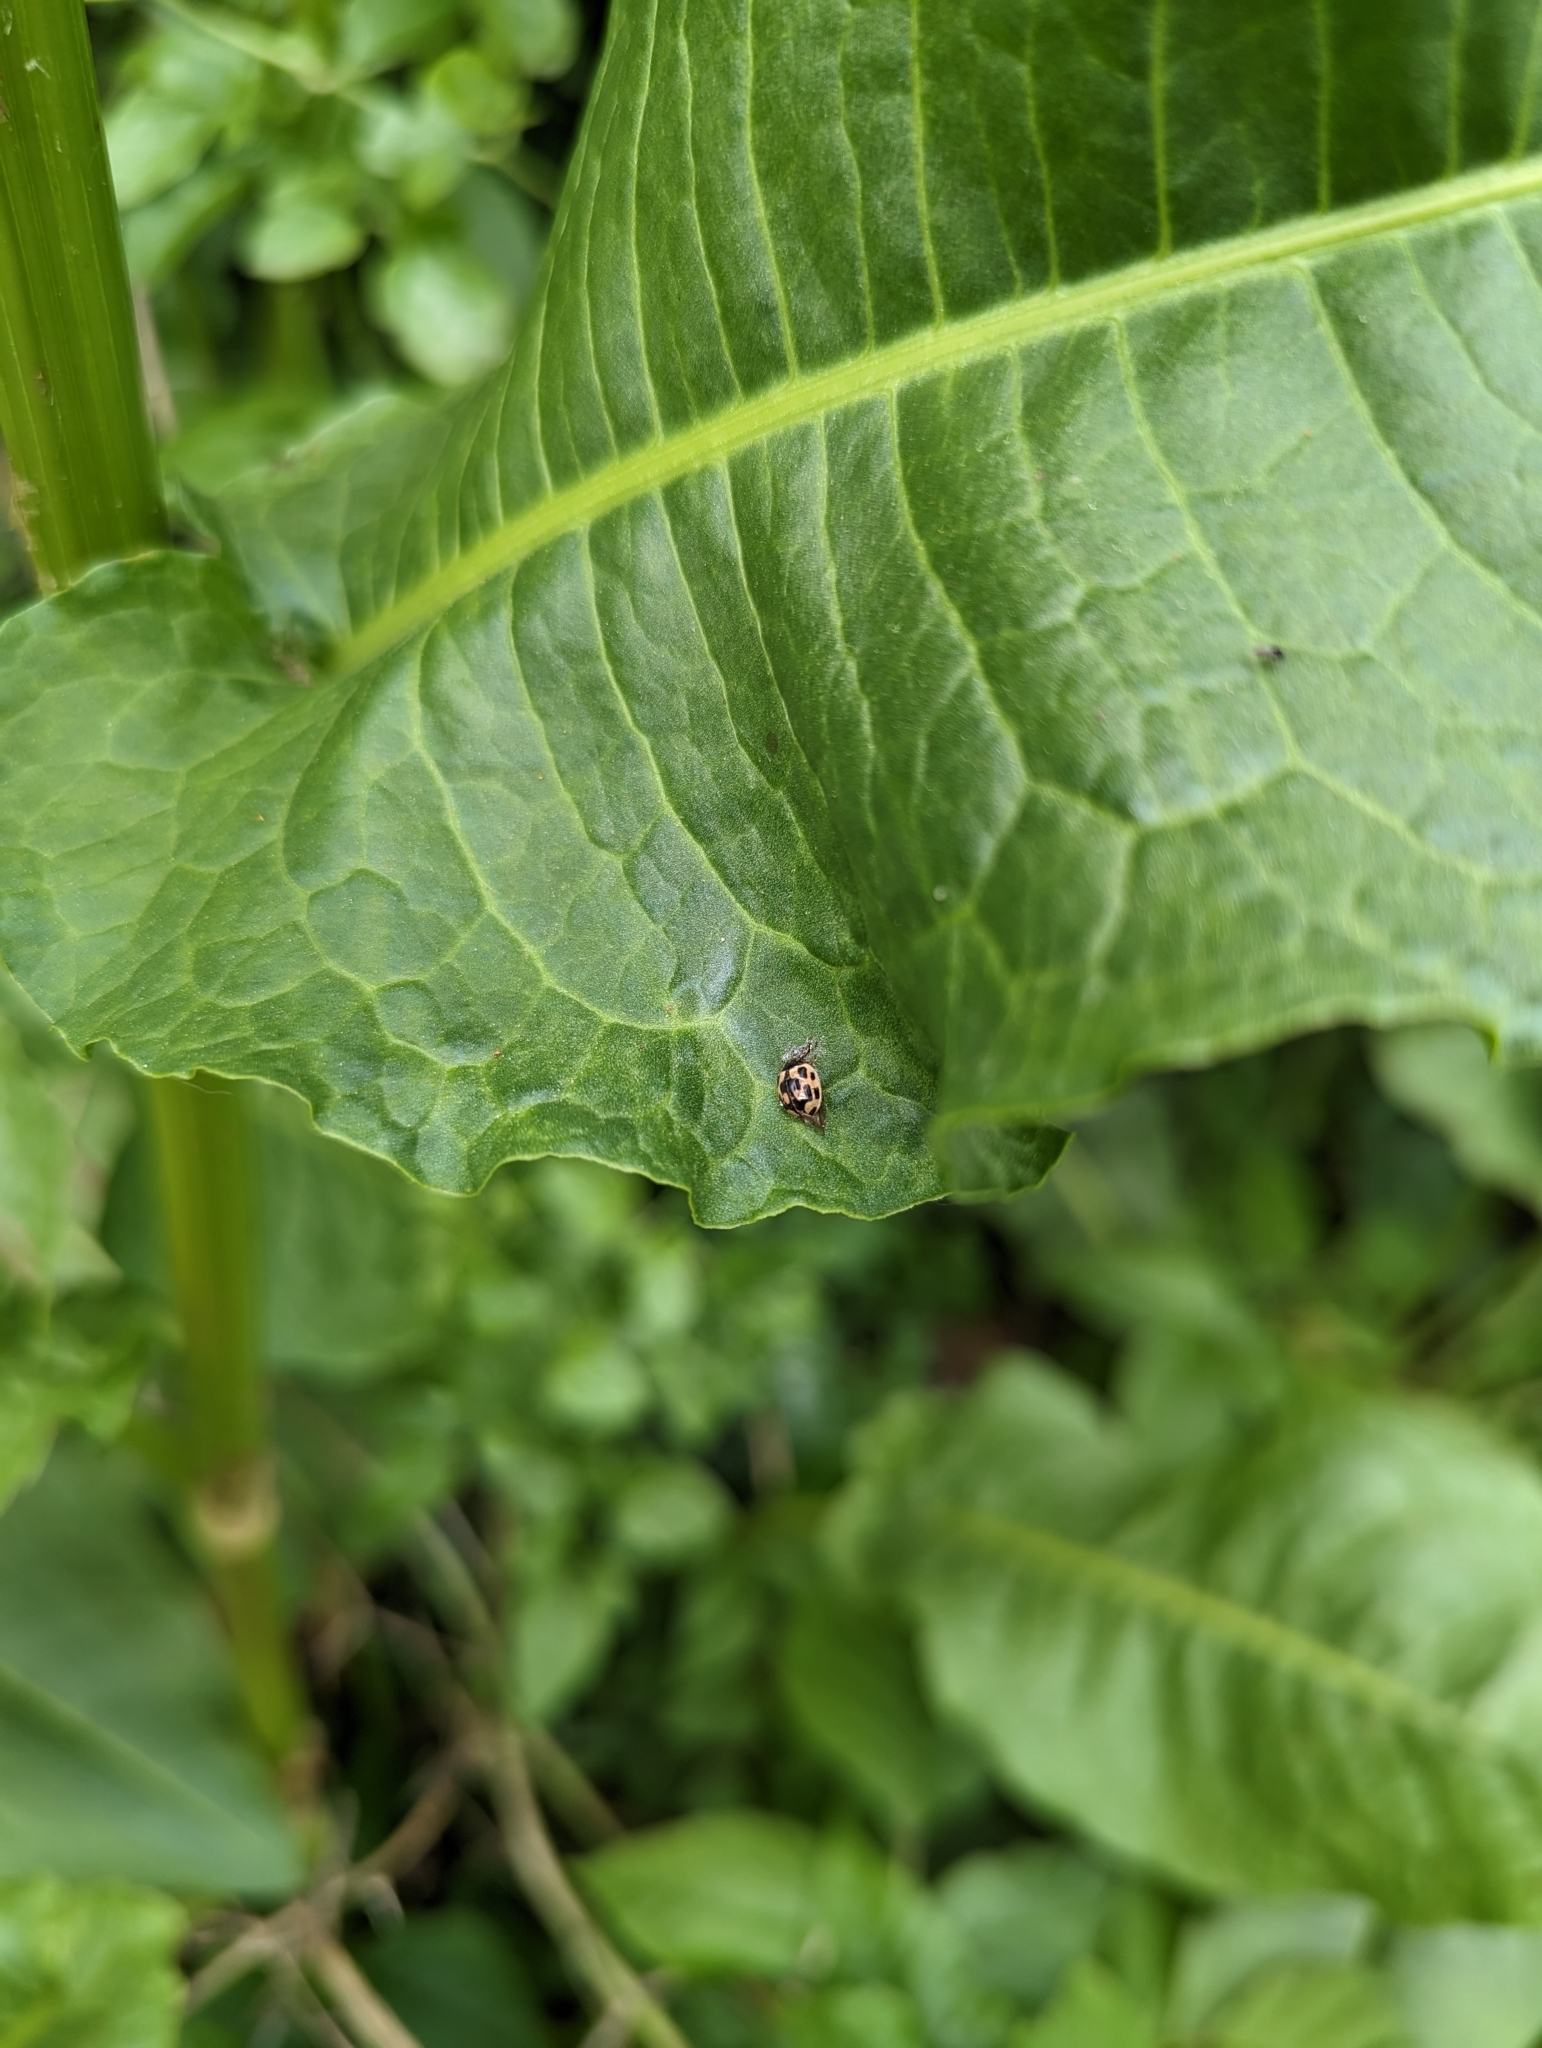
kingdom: Animalia
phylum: Arthropoda
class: Insecta
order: Coleoptera
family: Coccinellidae
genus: Propylaea
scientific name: Propylaea quatuordecimpunctata
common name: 14-spotted ladybird beetle
